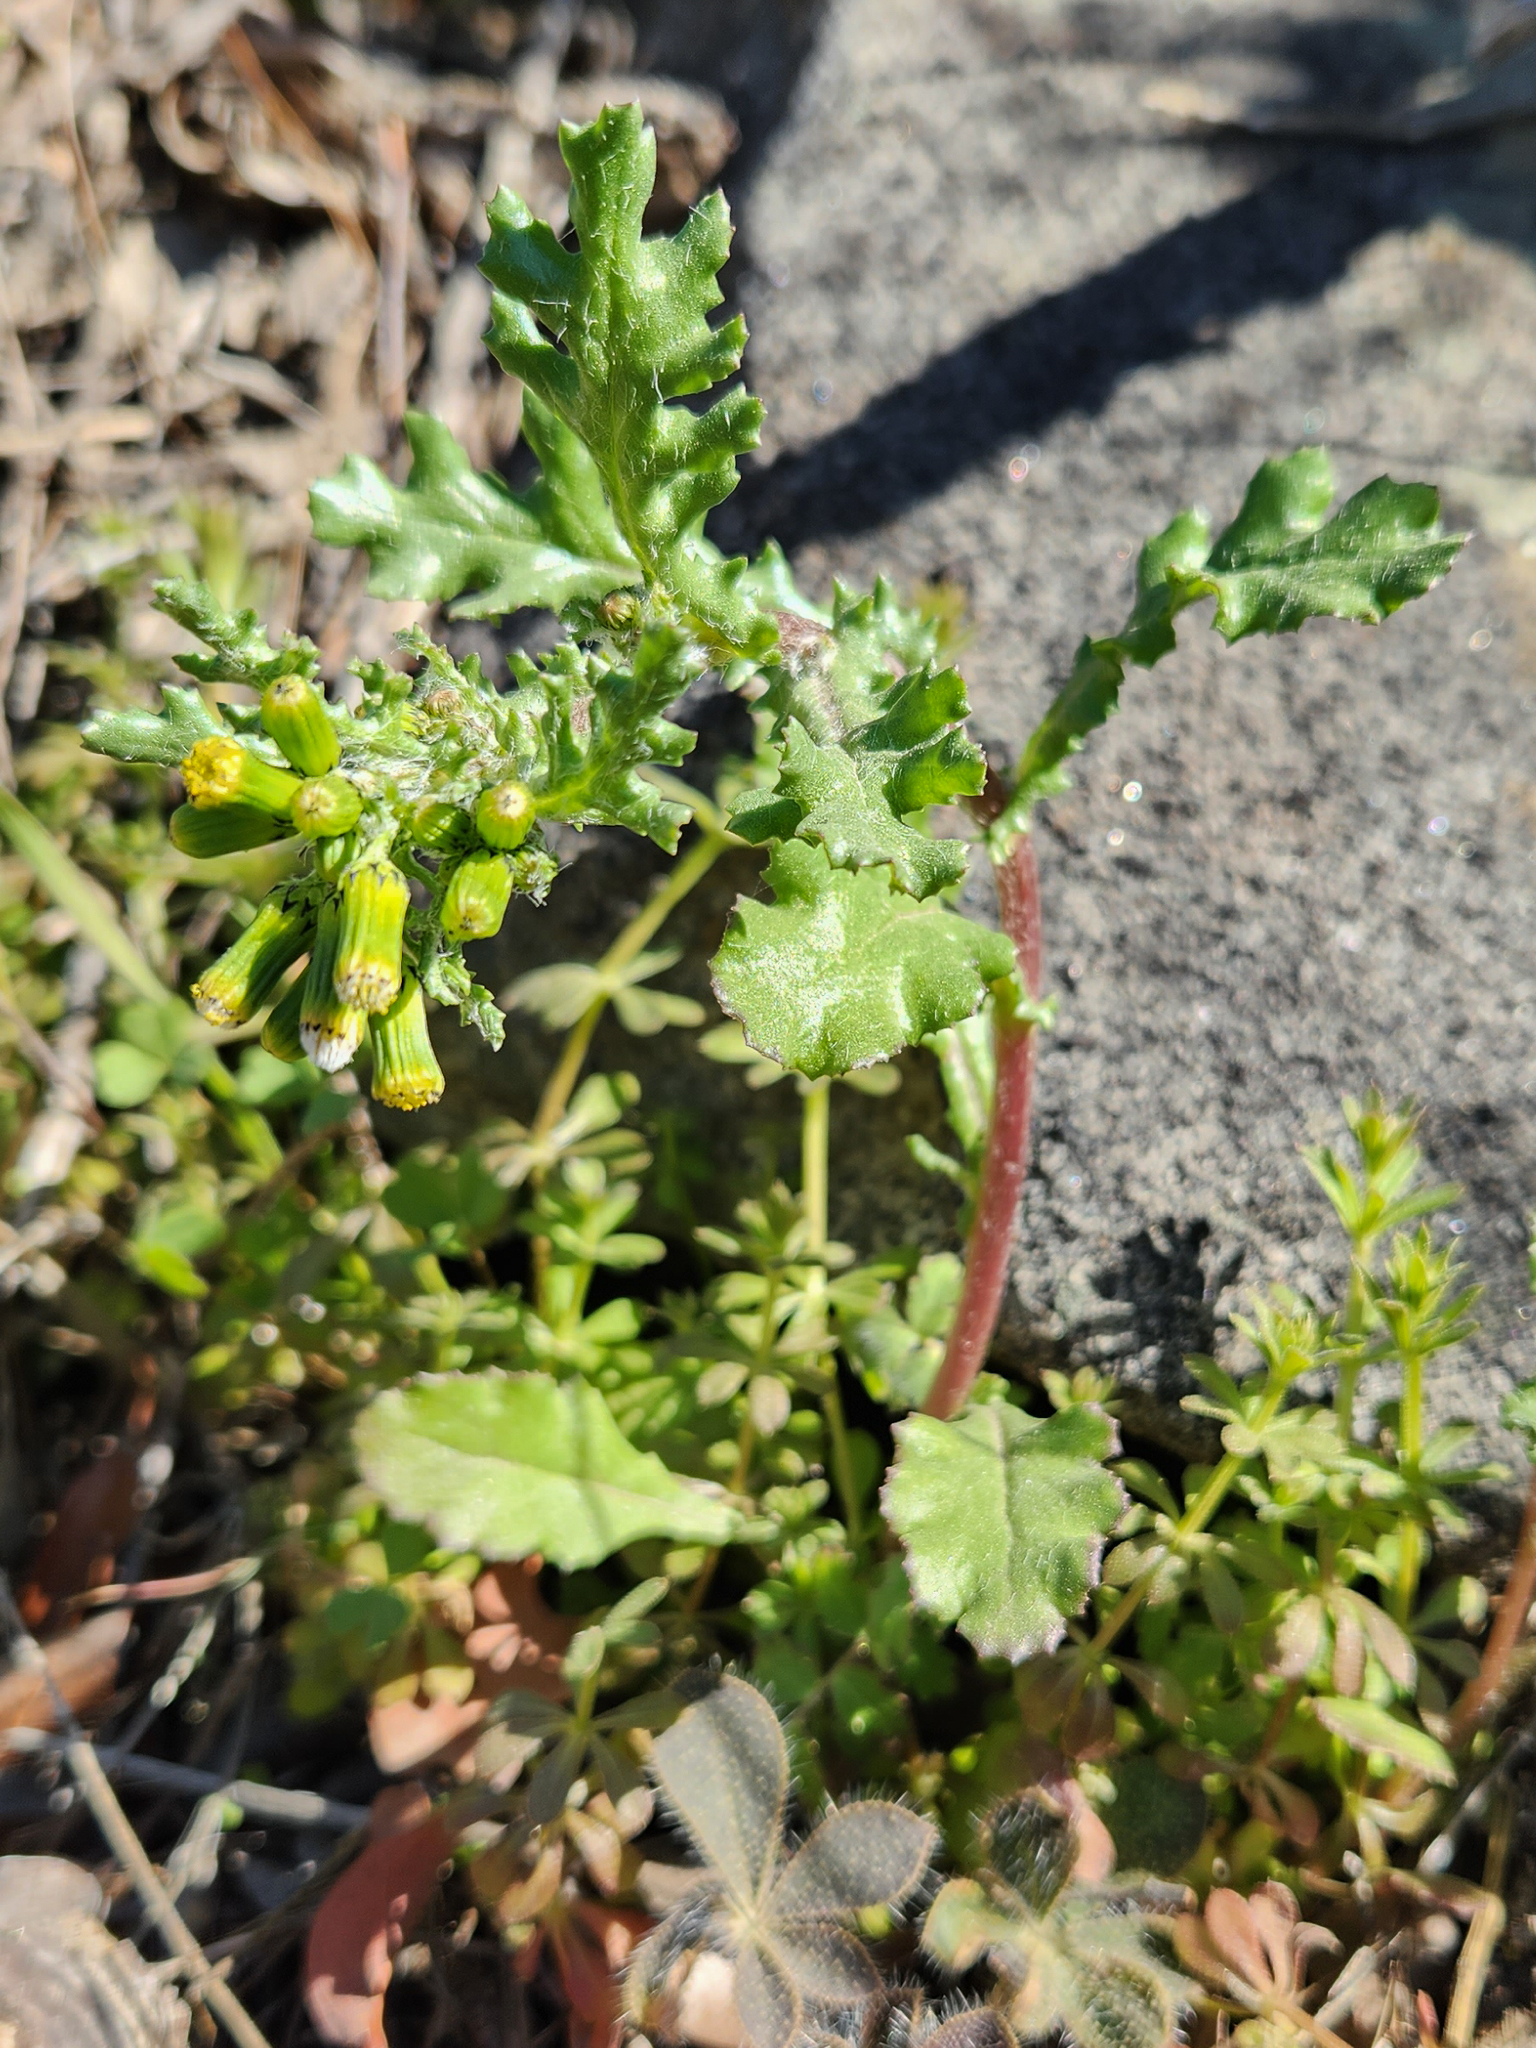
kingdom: Plantae
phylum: Tracheophyta
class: Magnoliopsida
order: Asterales
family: Asteraceae
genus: Senecio
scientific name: Senecio vulgaris
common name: Old-man-in-the-spring
